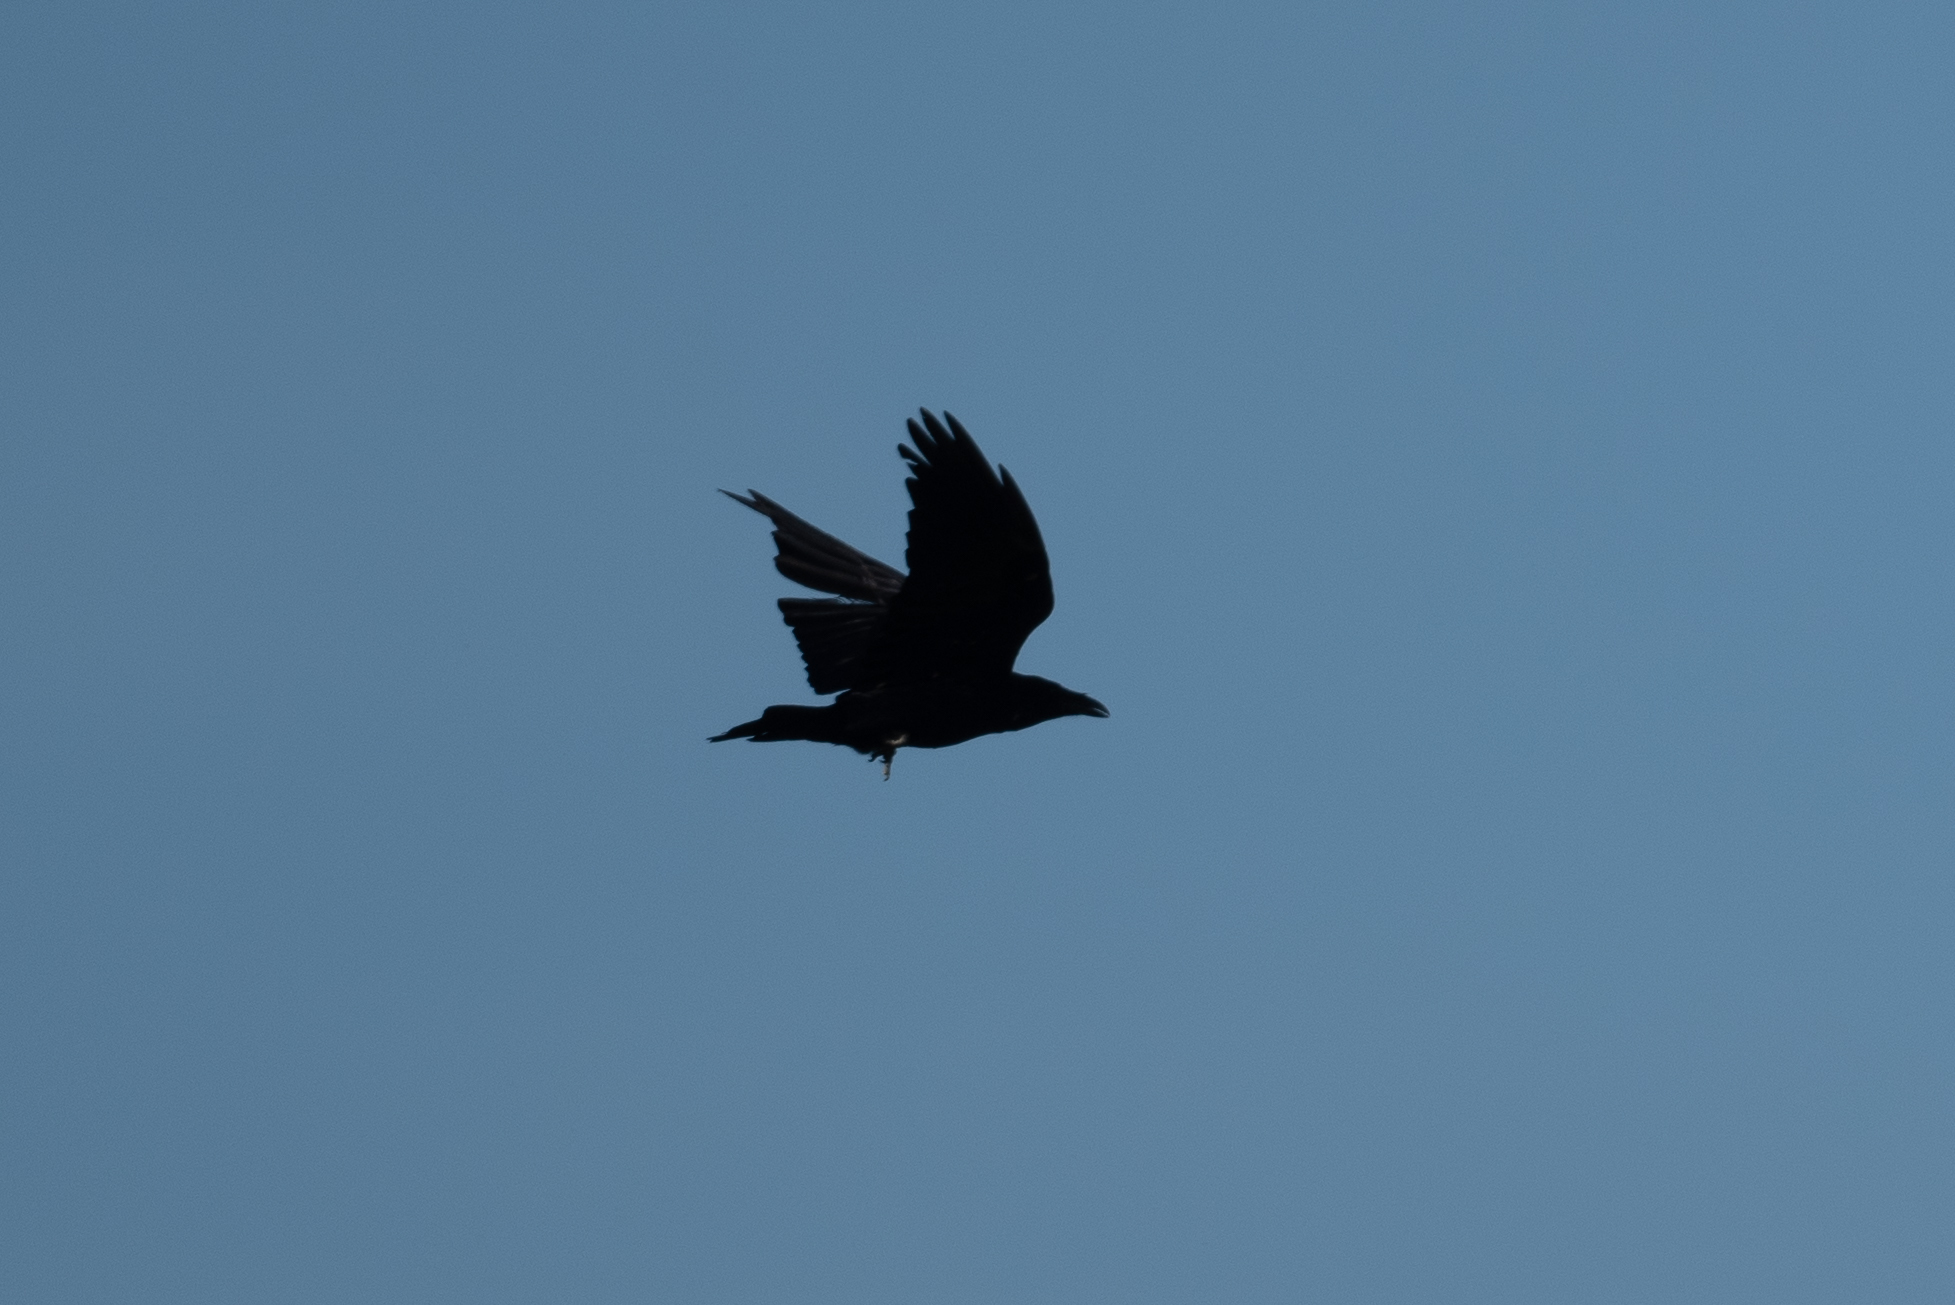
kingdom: Animalia
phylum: Chordata
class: Aves
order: Passeriformes
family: Corvidae
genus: Corvus
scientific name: Corvus corax
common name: Common raven
